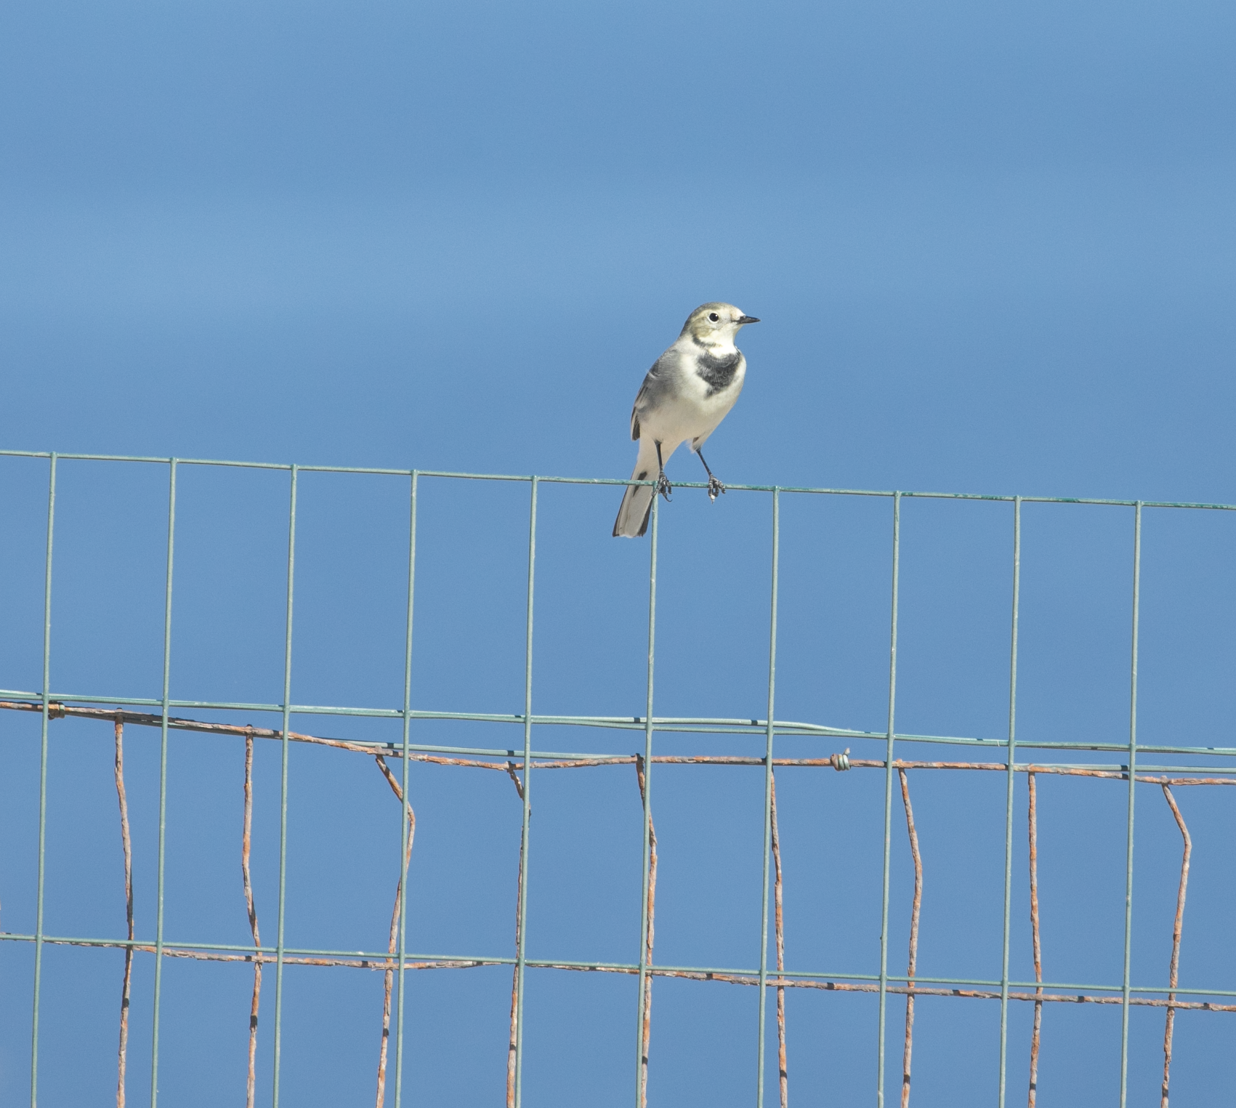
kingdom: Animalia
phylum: Chordata
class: Aves
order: Passeriformes
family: Motacillidae
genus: Motacilla
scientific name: Motacilla alba
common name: White wagtail
